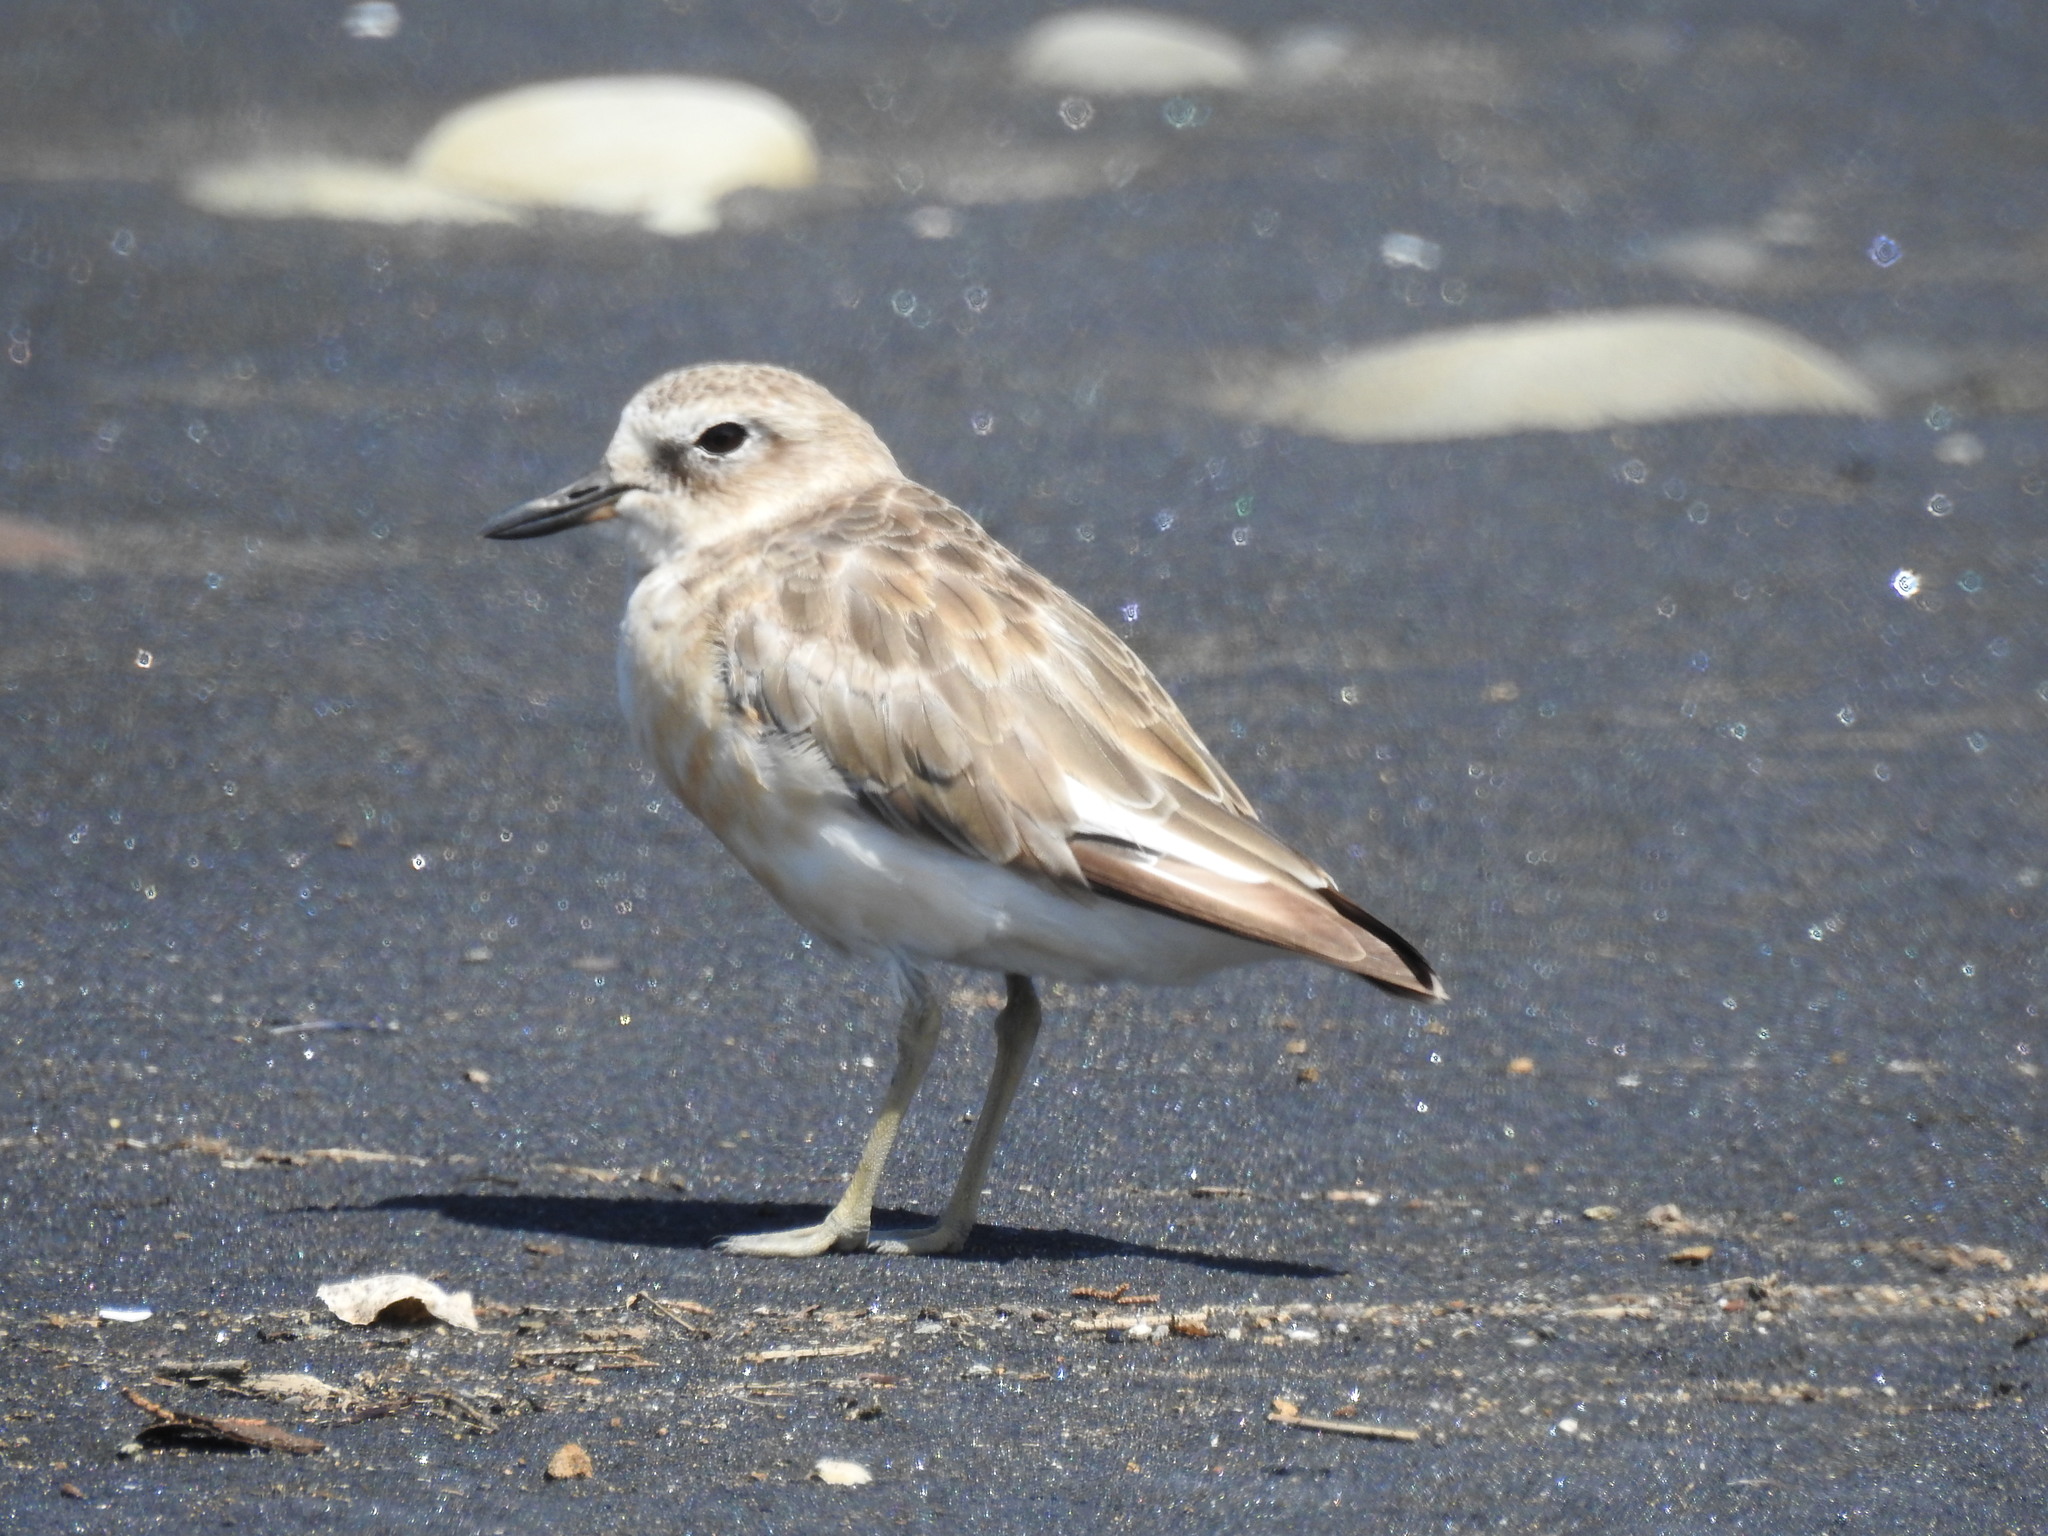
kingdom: Animalia
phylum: Chordata
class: Aves
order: Charadriiformes
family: Charadriidae
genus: Anarhynchus
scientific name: Anarhynchus
